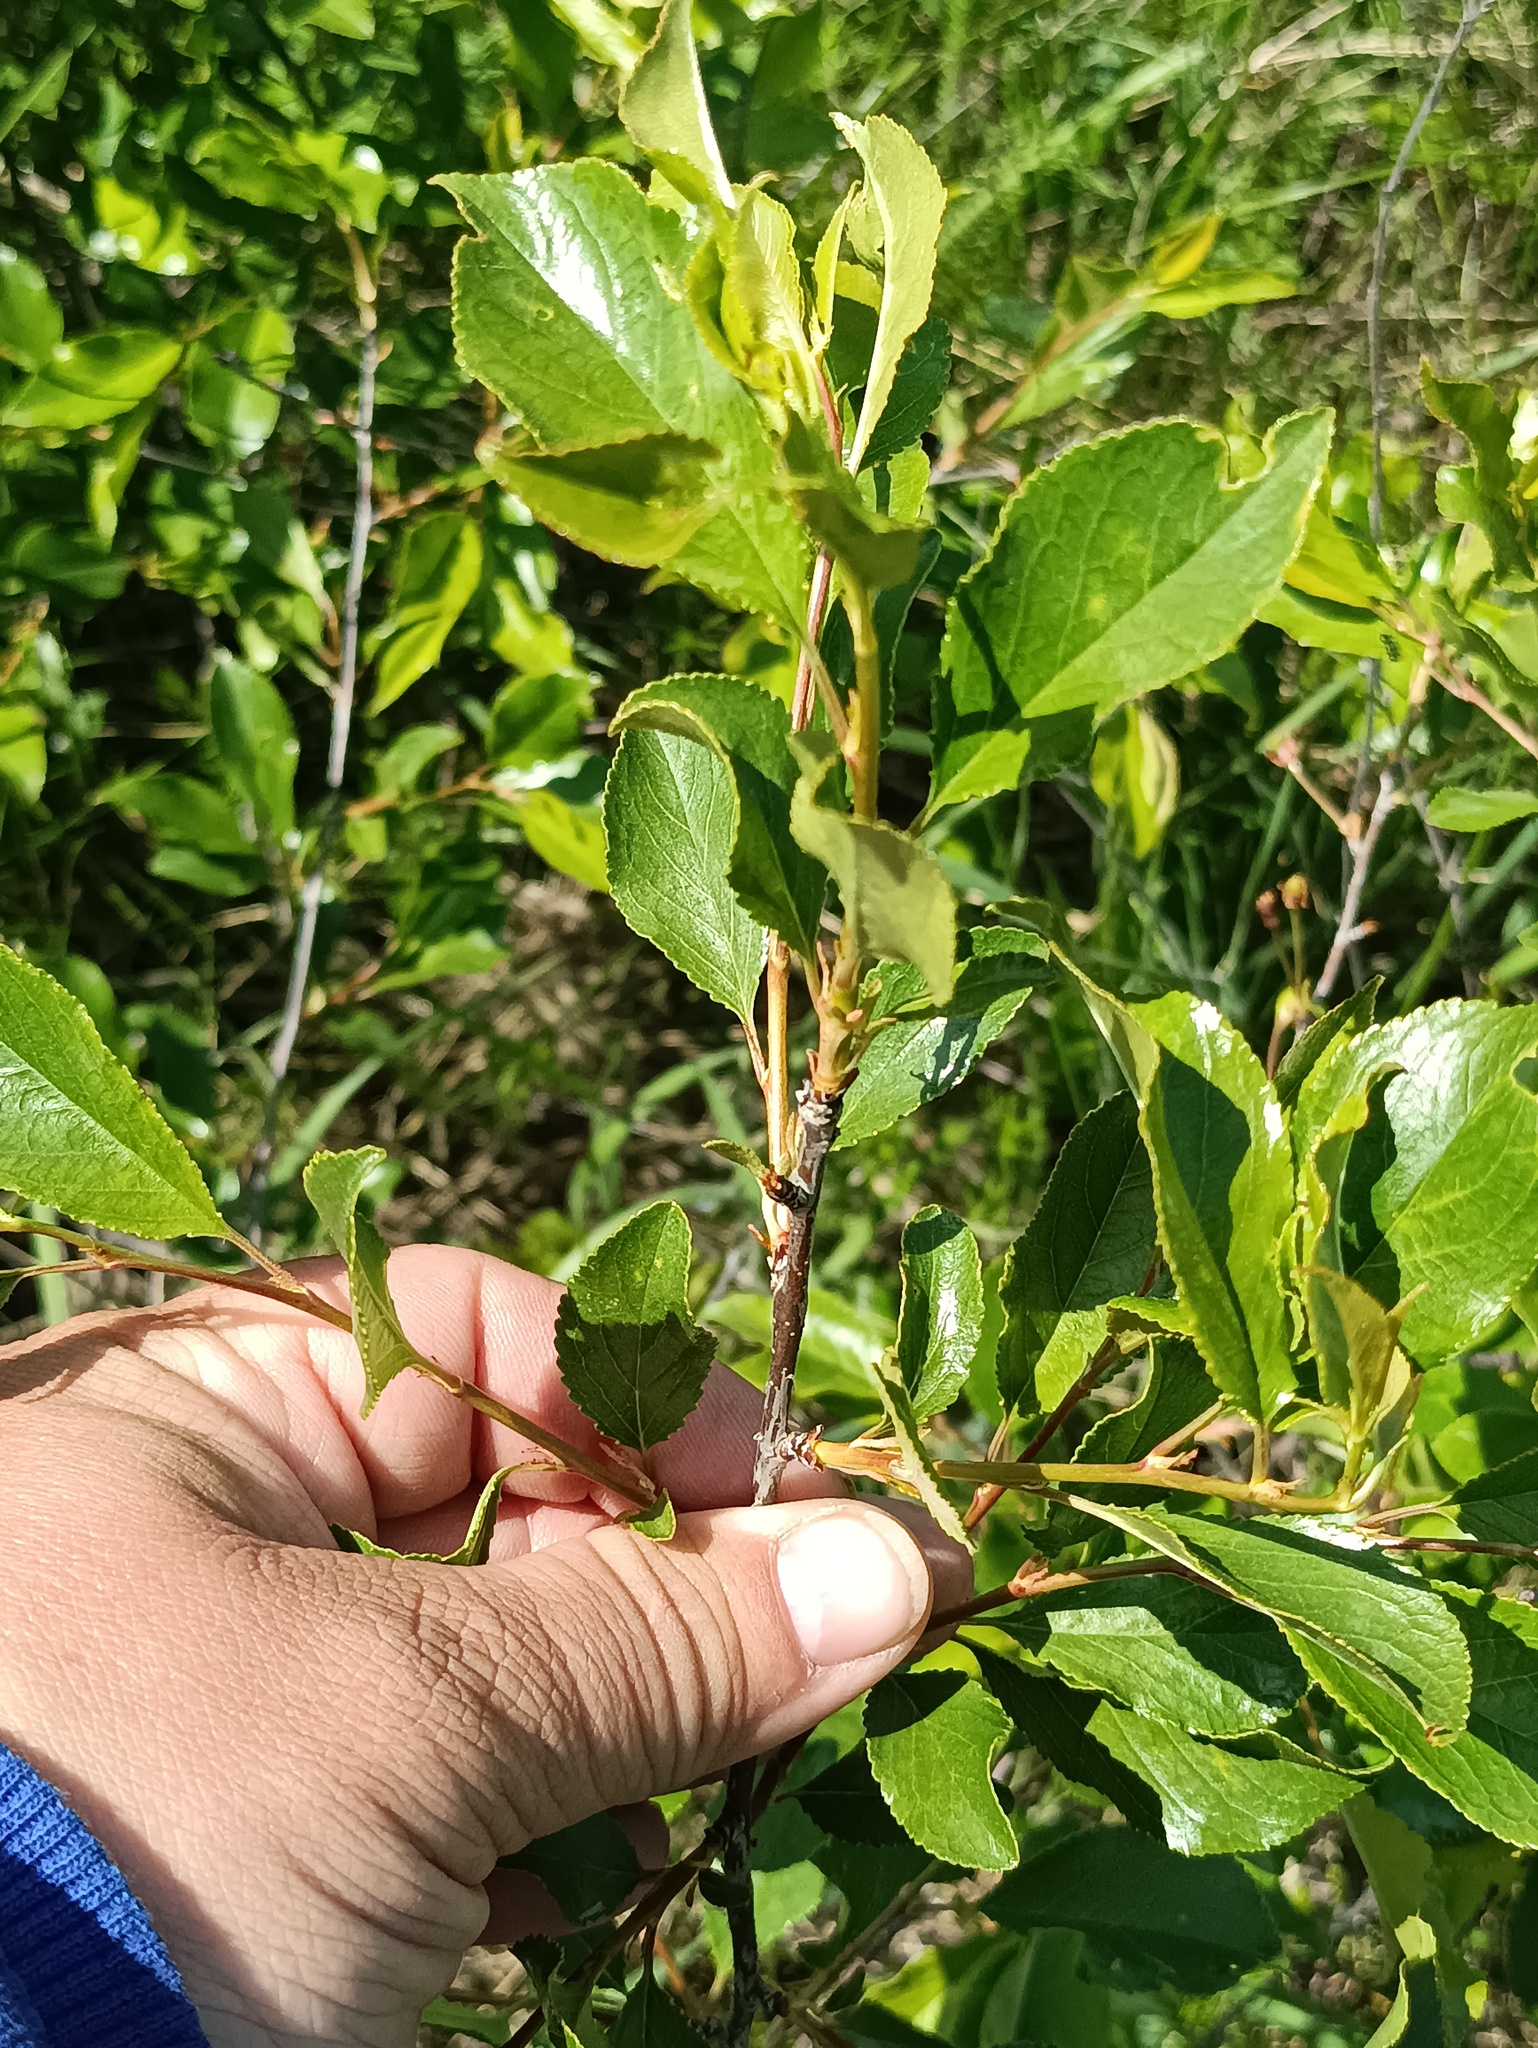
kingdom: Plantae
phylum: Tracheophyta
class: Magnoliopsida
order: Rosales
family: Rosaceae
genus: Prunus
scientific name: Prunus fruticosa
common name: European dwarf cherry
